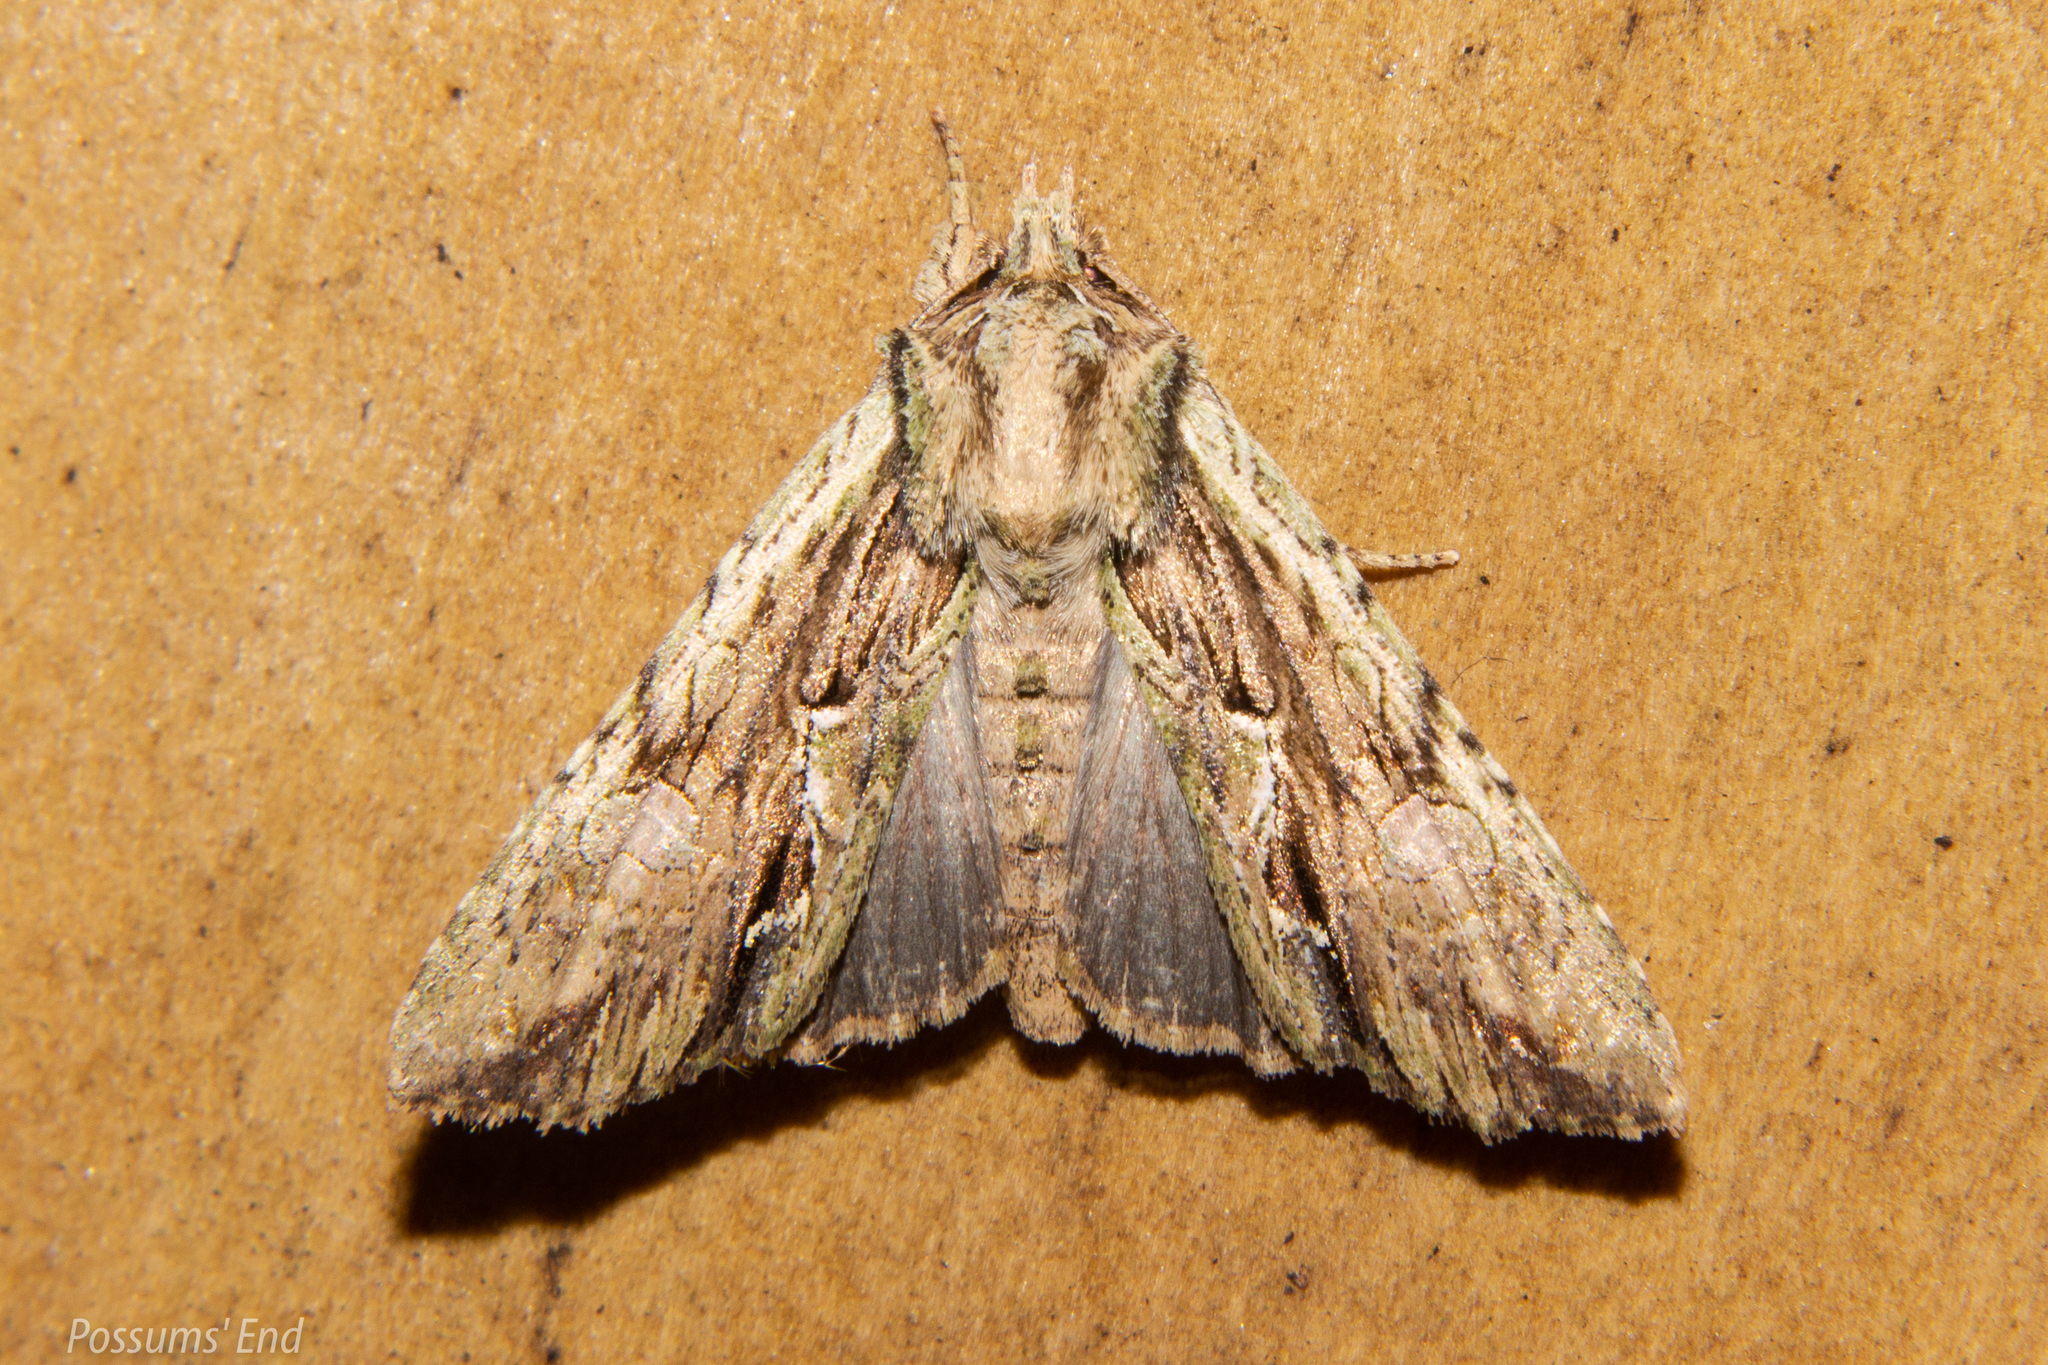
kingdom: Animalia
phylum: Arthropoda
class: Insecta
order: Lepidoptera
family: Noctuidae
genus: Meterana
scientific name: Meterana decorata
